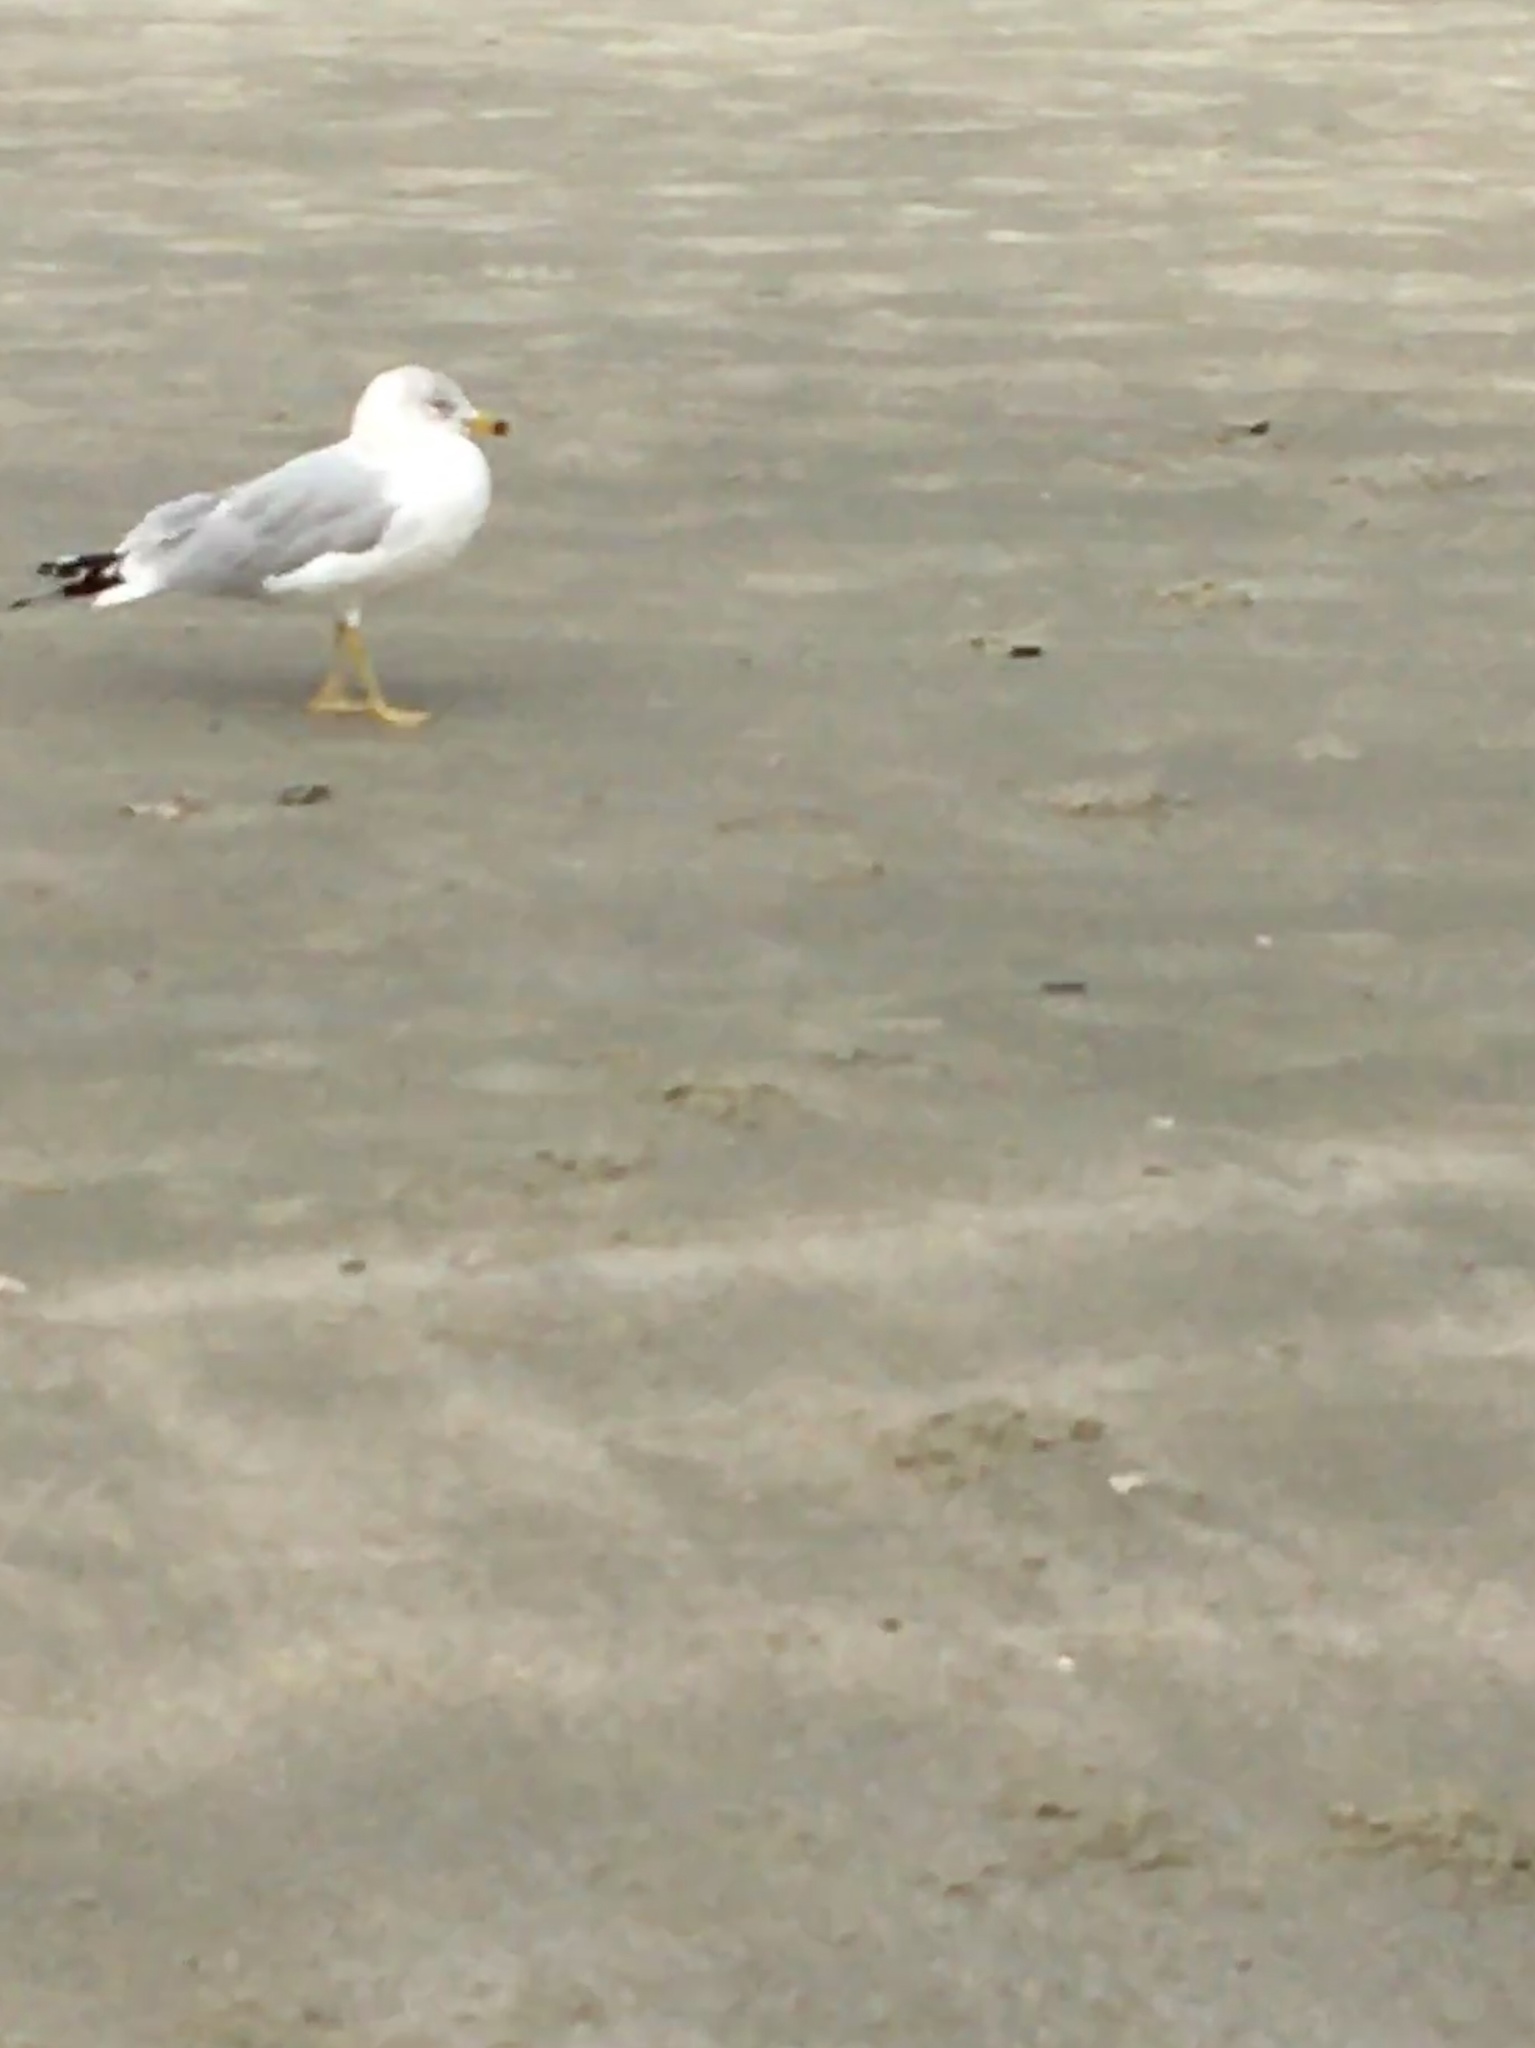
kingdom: Animalia
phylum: Chordata
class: Aves
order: Charadriiformes
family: Laridae
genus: Larus
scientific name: Larus delawarensis
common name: Ring-billed gull
